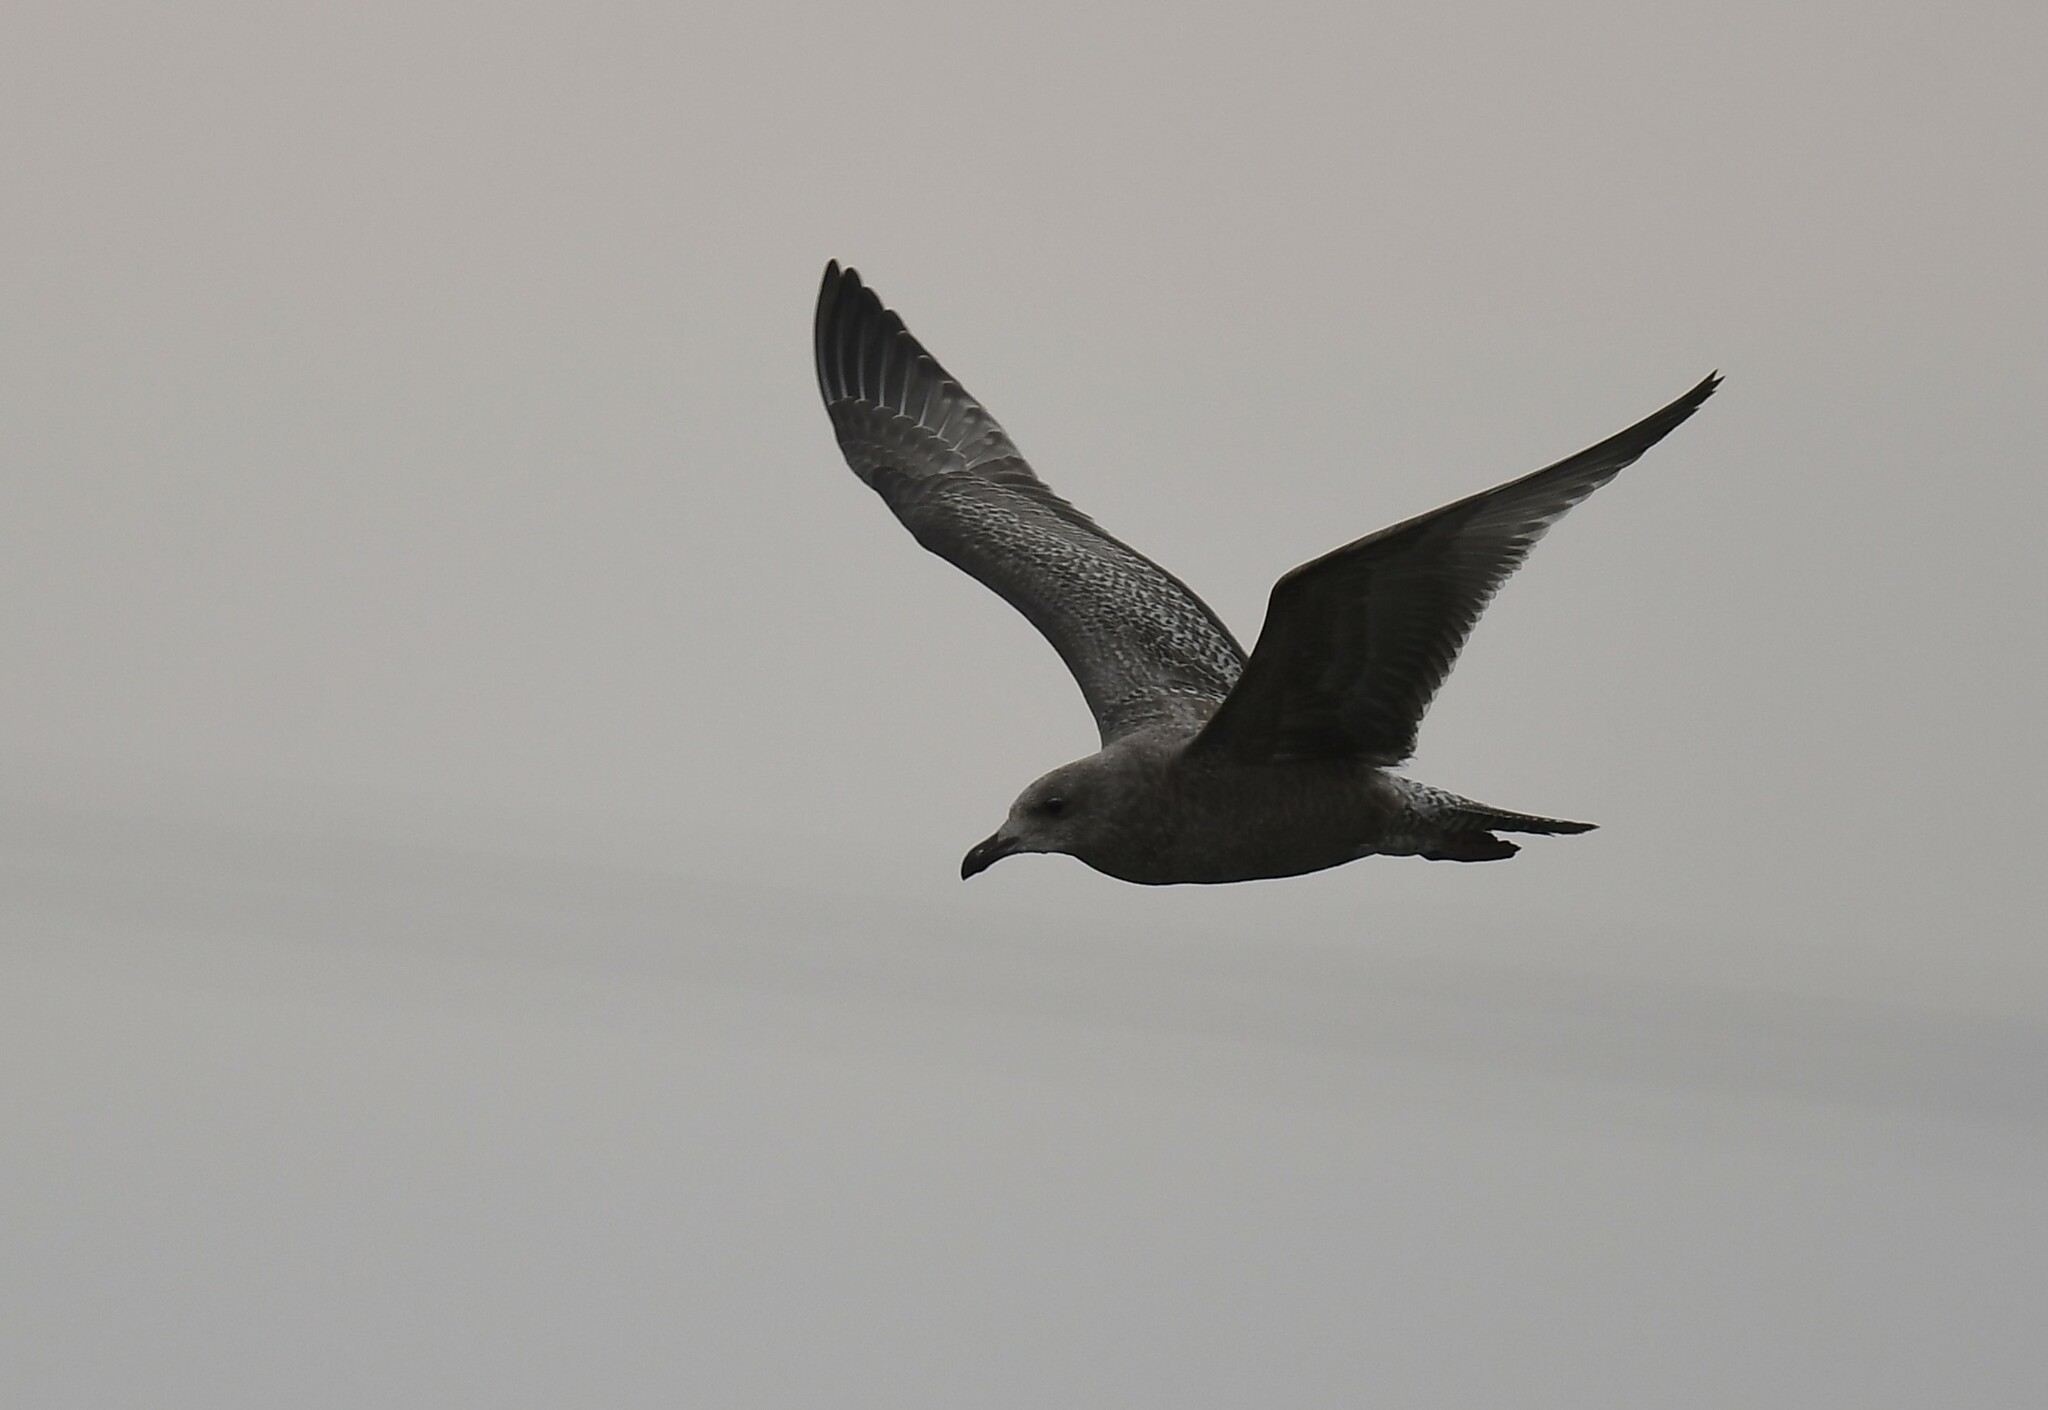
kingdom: Animalia
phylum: Chordata
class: Aves
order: Charadriiformes
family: Laridae
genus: Larus
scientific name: Larus argentatus
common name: Herring gull
